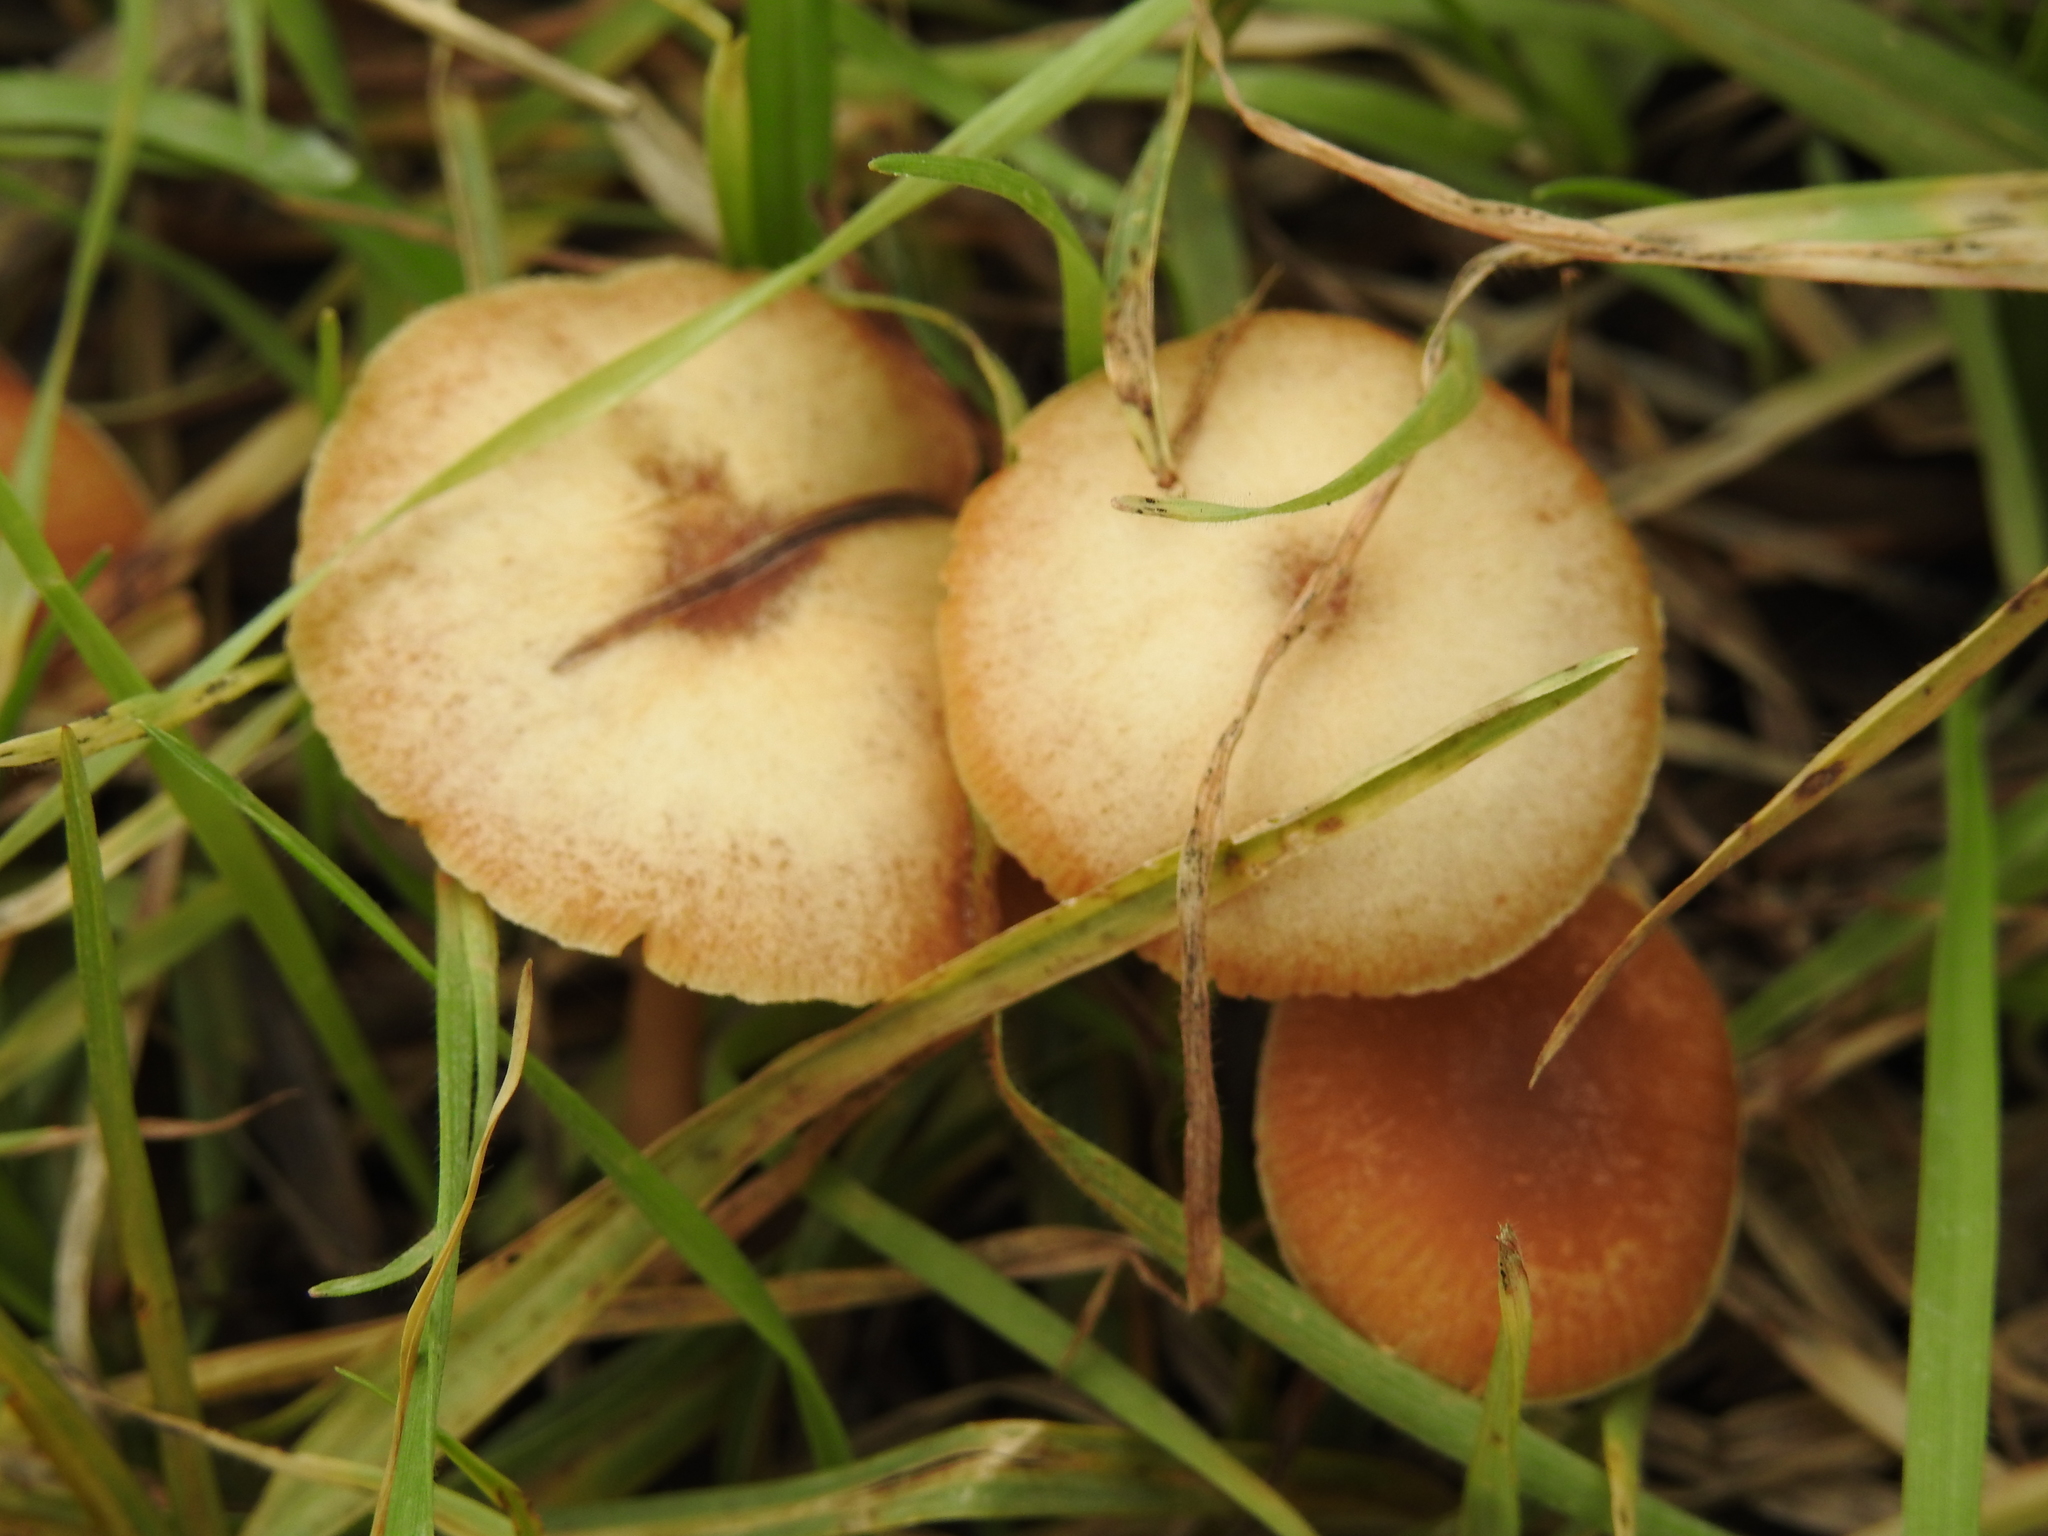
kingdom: Fungi
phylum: Basidiomycota
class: Agaricomycetes
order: Agaricales
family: Marasmiaceae
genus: Marasmius
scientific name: Marasmius oreades
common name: Fairy ring champignon
